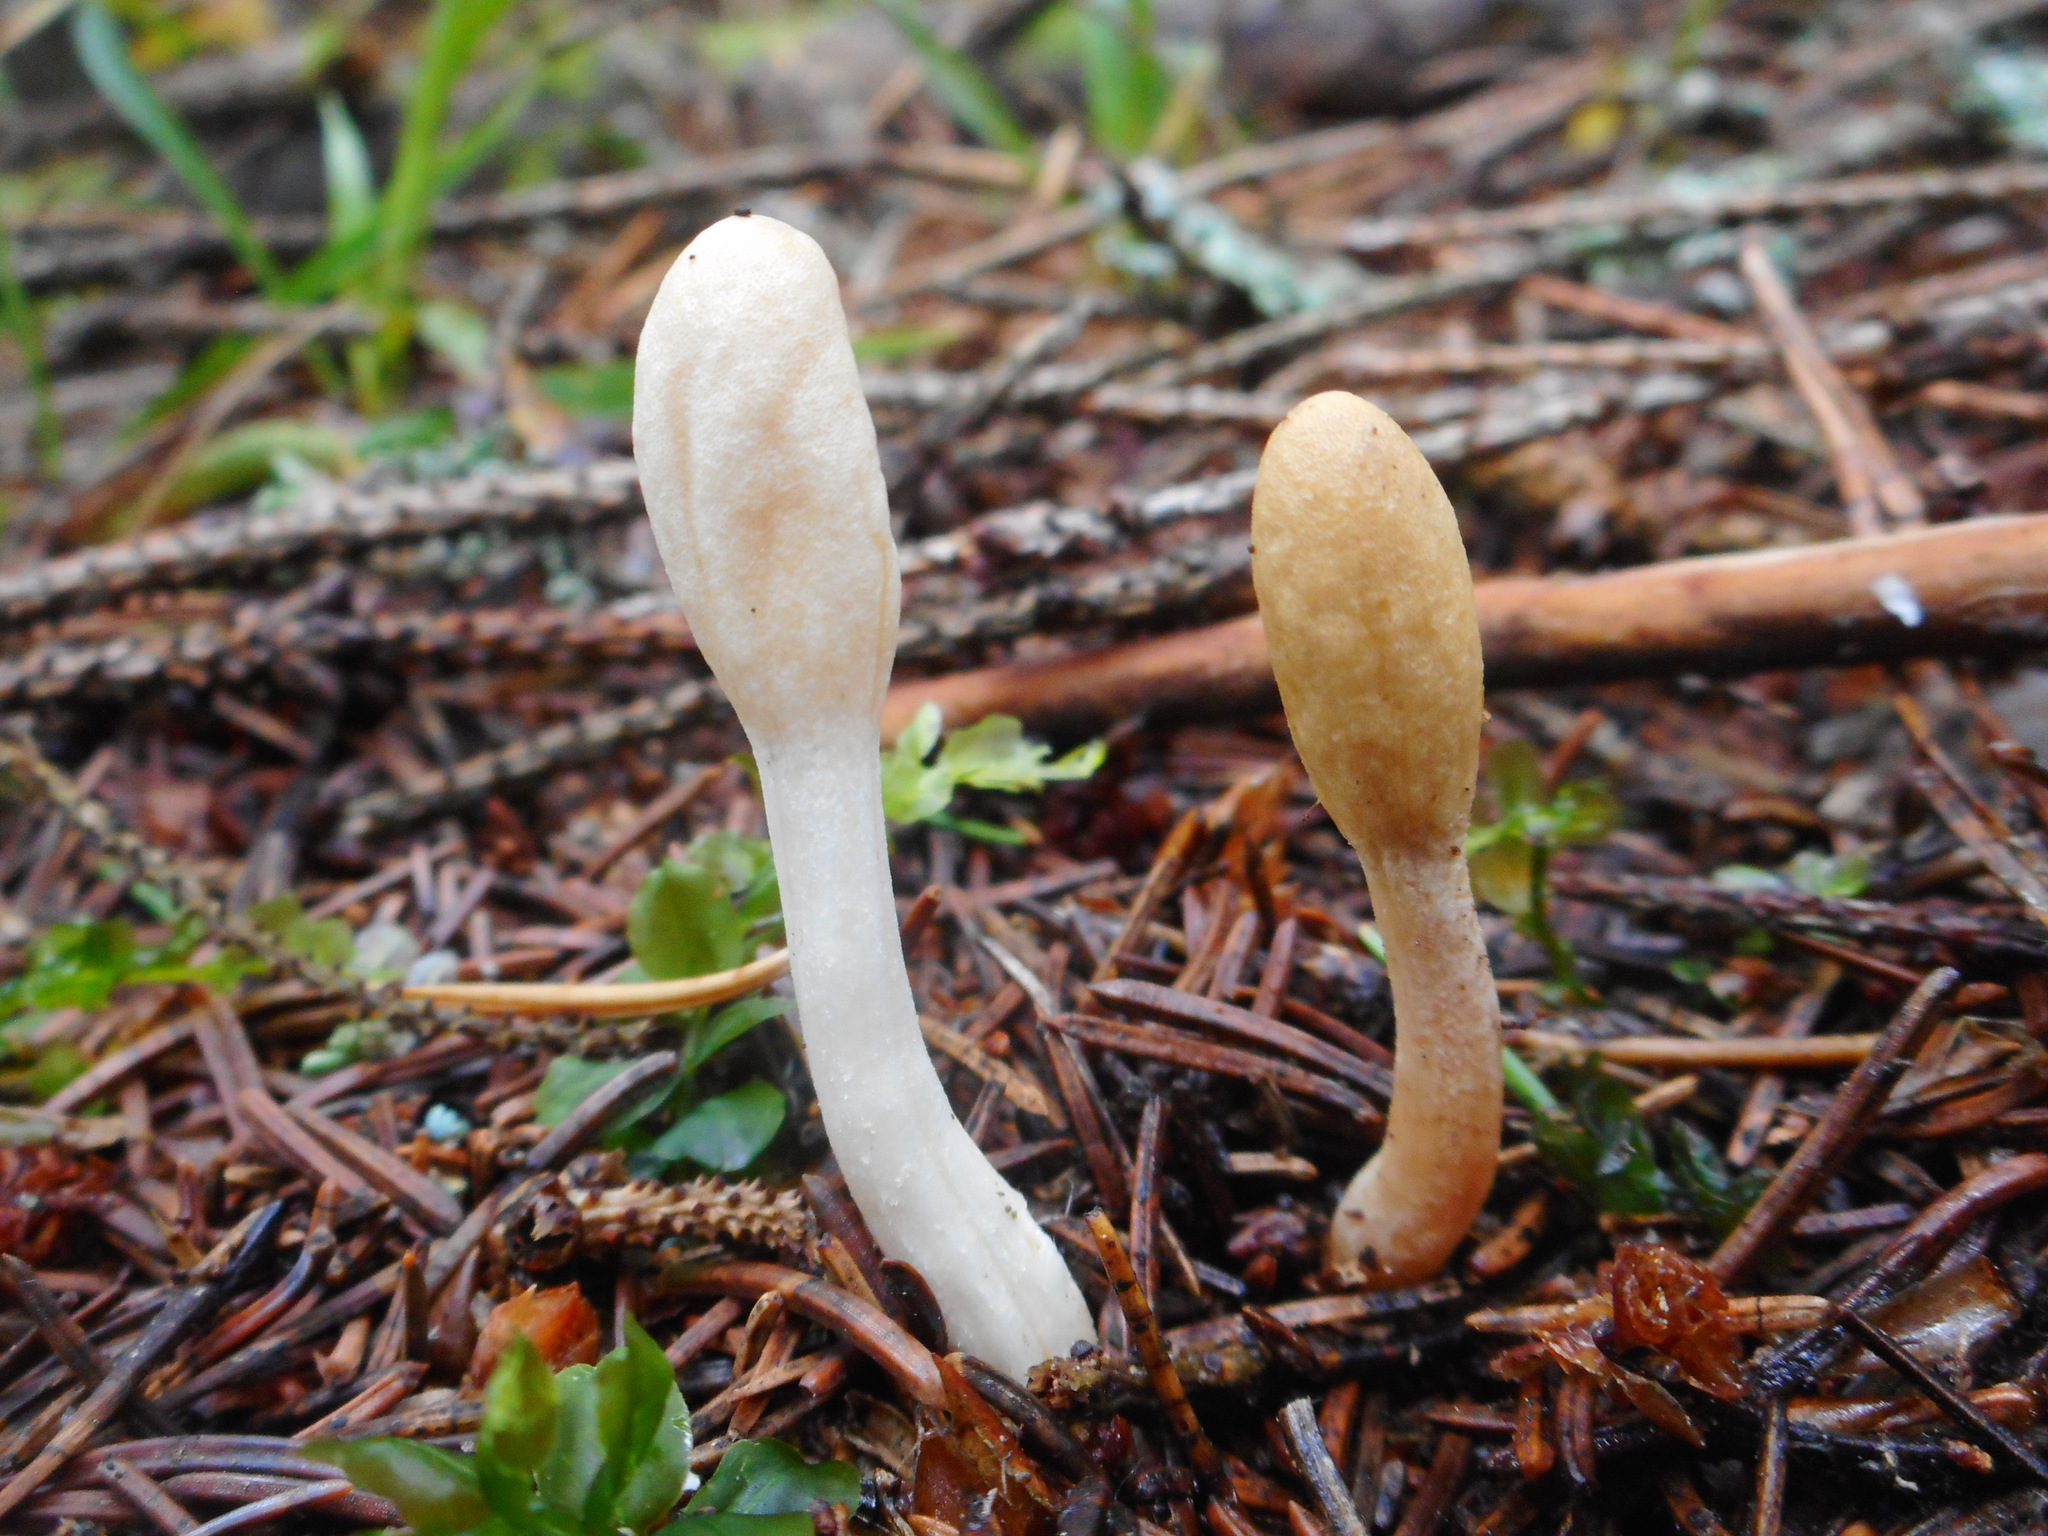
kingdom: Fungi
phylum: Ascomycota
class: Sordariomycetes
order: Hypocreales
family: Hypocreaceae
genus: Trichoderma
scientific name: Trichoderma leucopus
